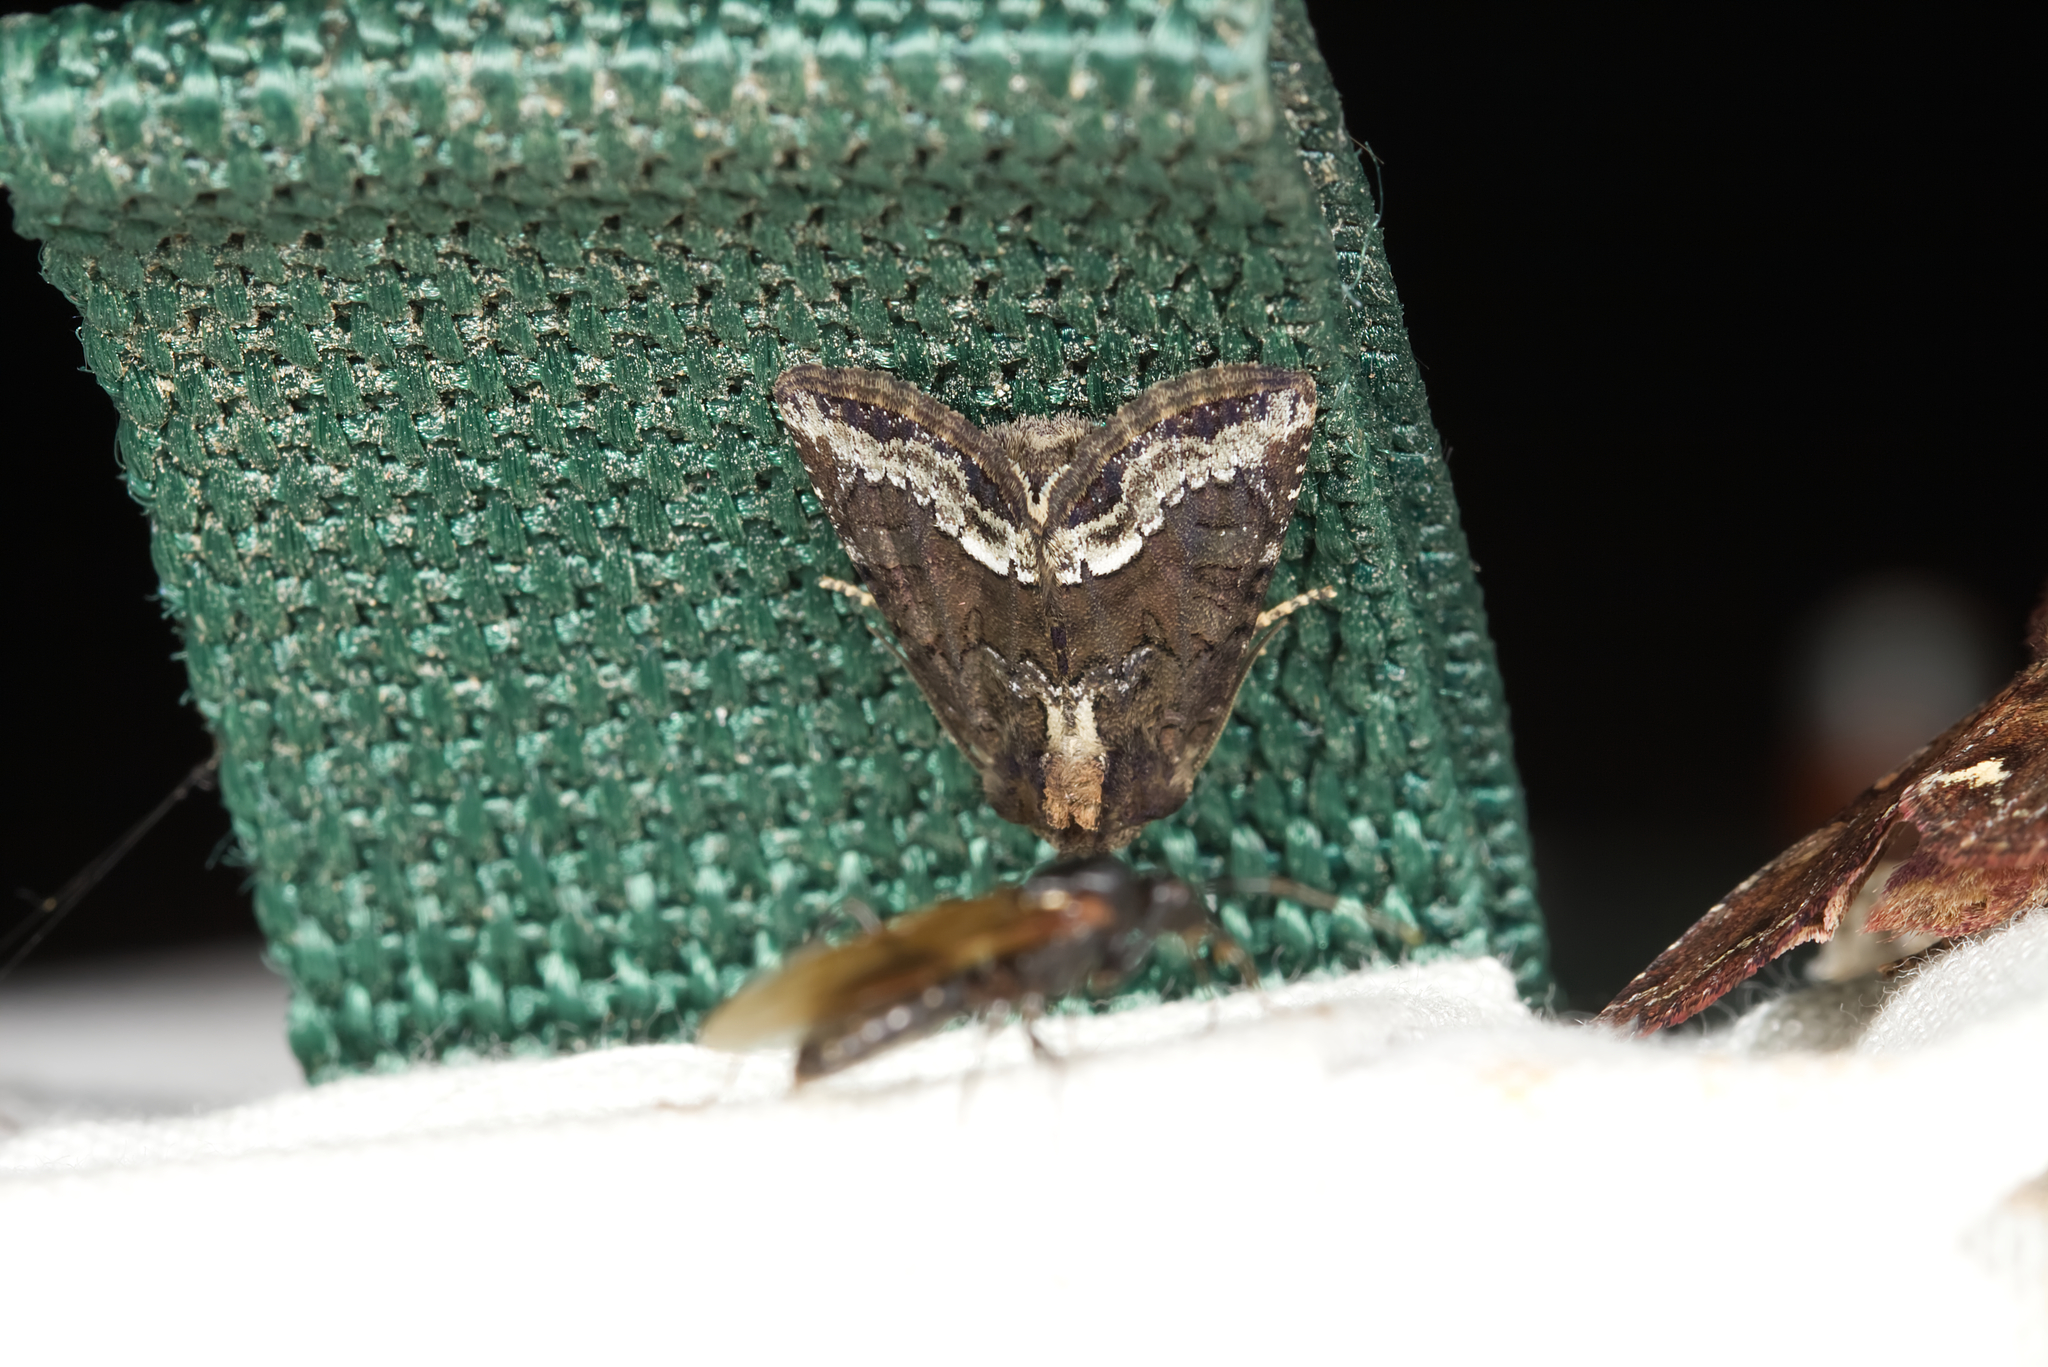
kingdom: Animalia
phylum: Arthropoda
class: Insecta
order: Lepidoptera
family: Noctuidae
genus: Oligia
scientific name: Oligia strigilis
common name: Marbled minor
